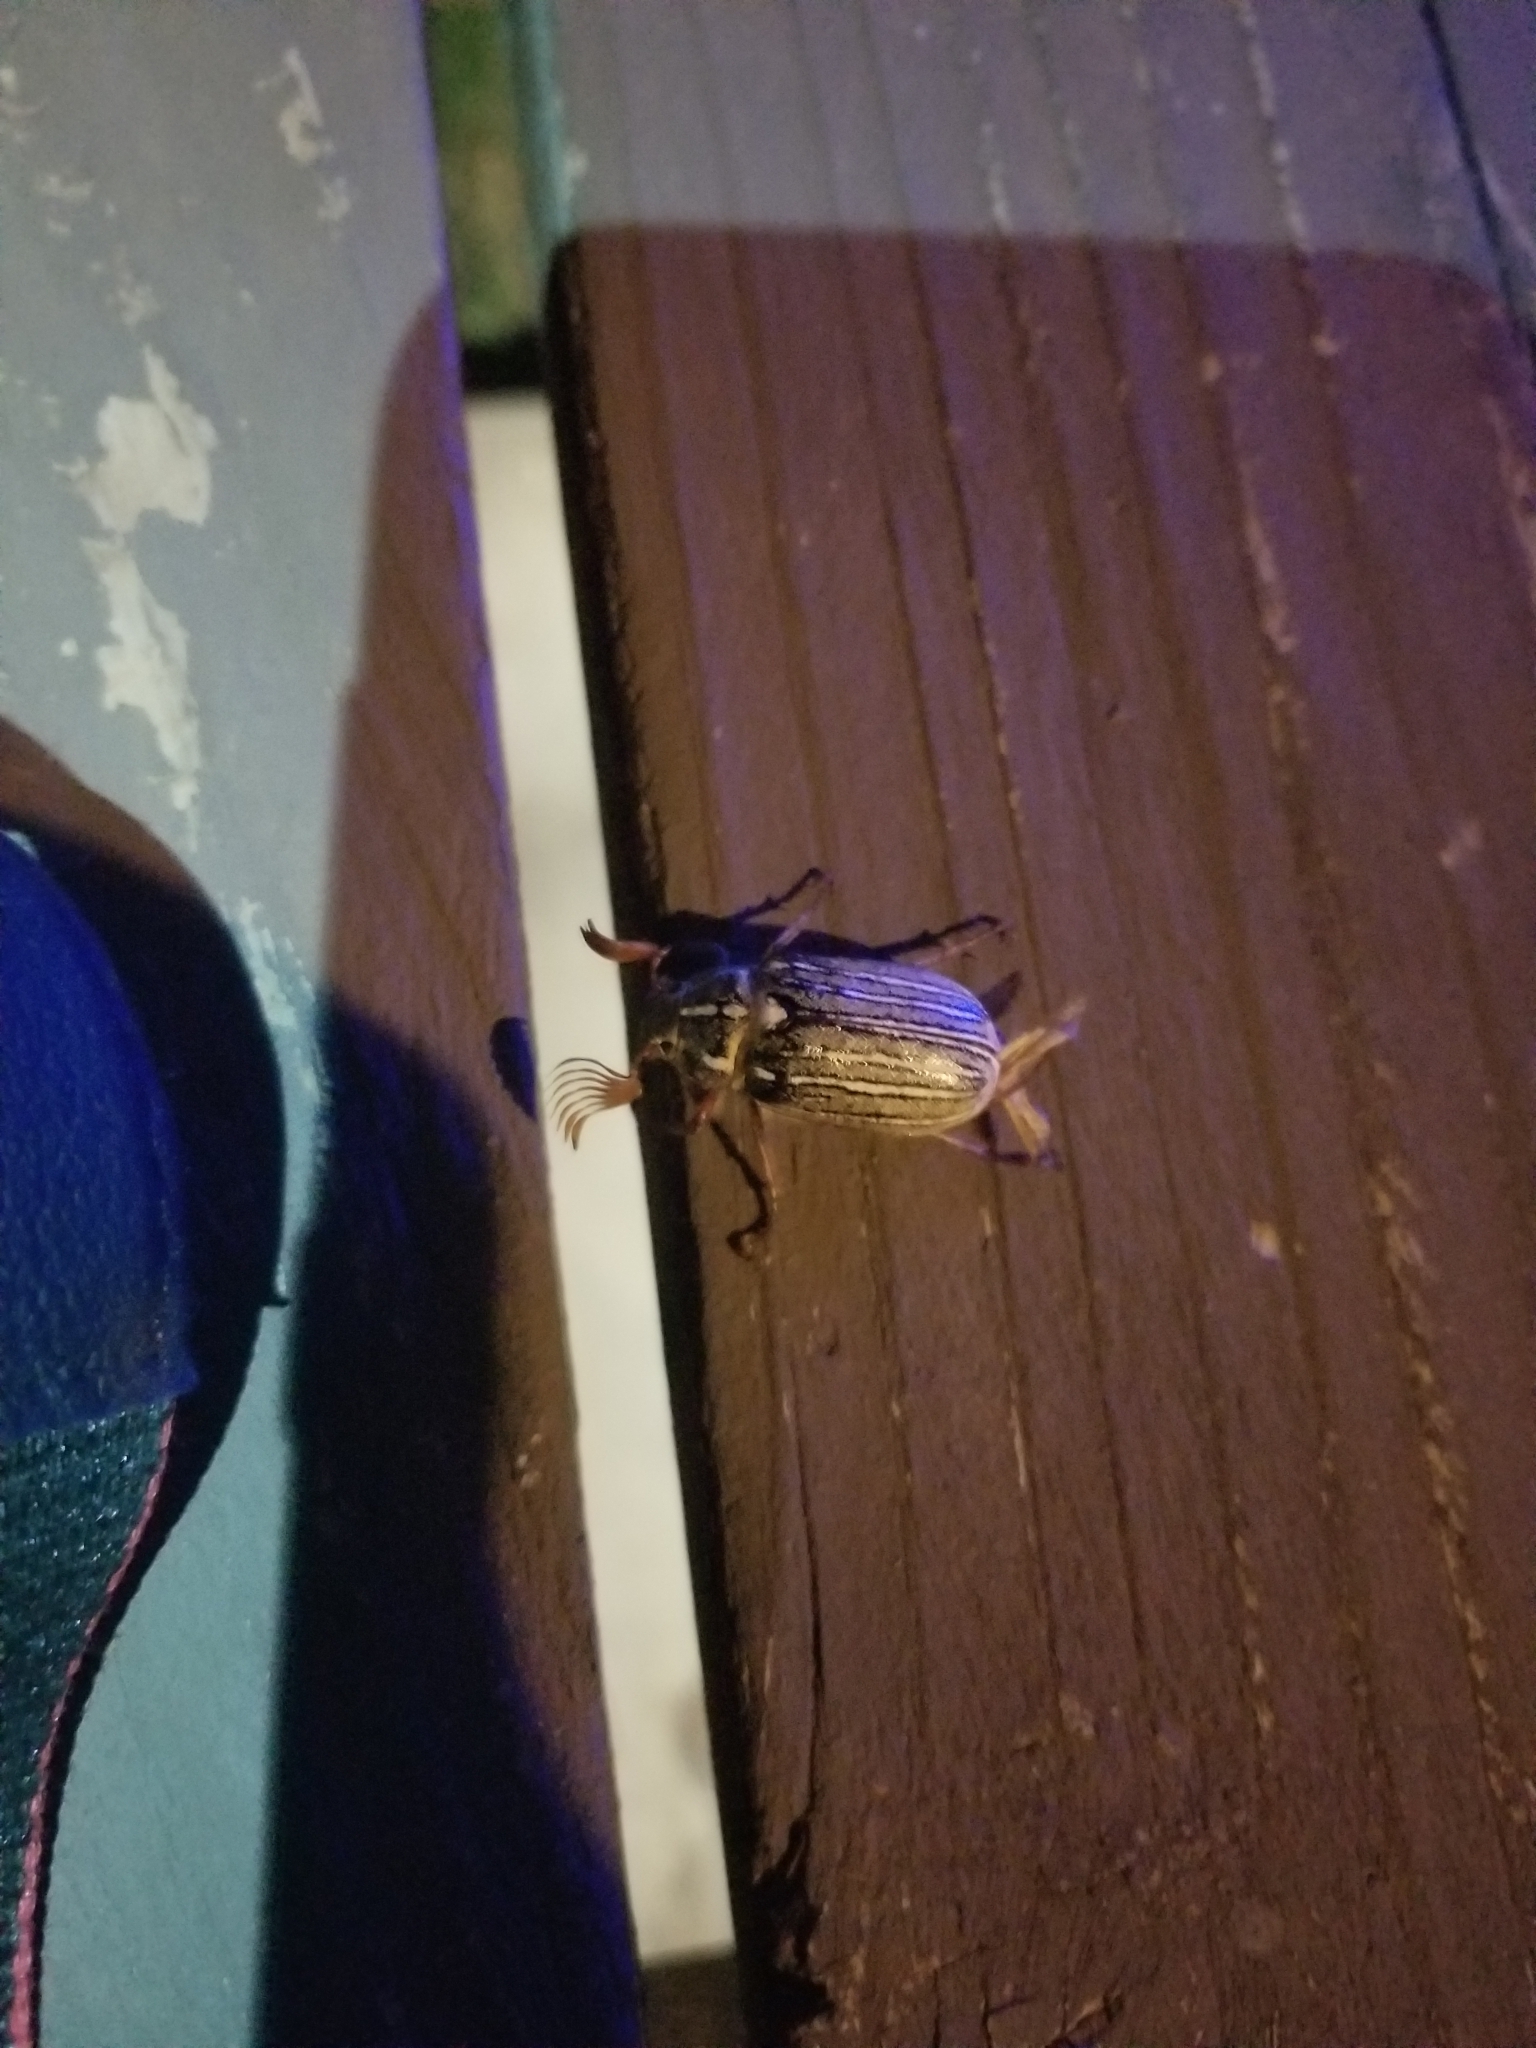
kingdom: Animalia
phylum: Arthropoda
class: Insecta
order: Coleoptera
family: Scarabaeidae
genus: Polyphylla
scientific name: Polyphylla decemlineata
